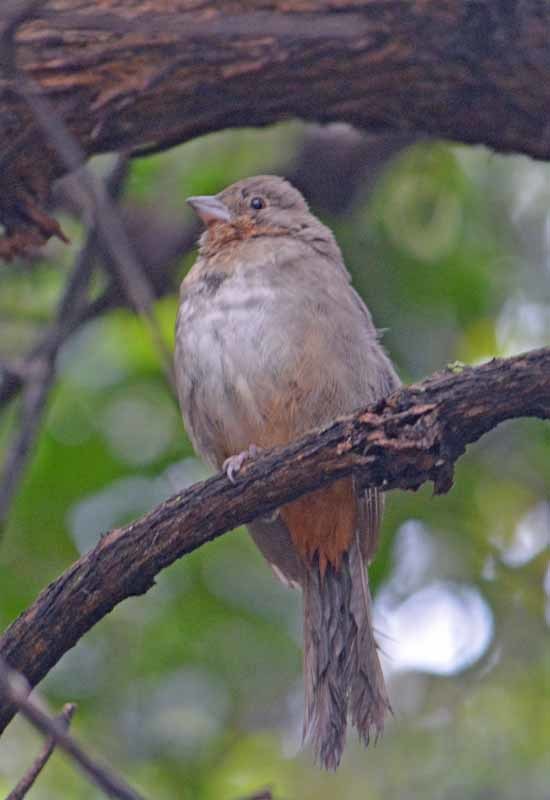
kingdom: Animalia
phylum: Chordata
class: Aves
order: Passeriformes
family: Passerellidae
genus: Melozone
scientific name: Melozone fusca
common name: Canyon towhee
